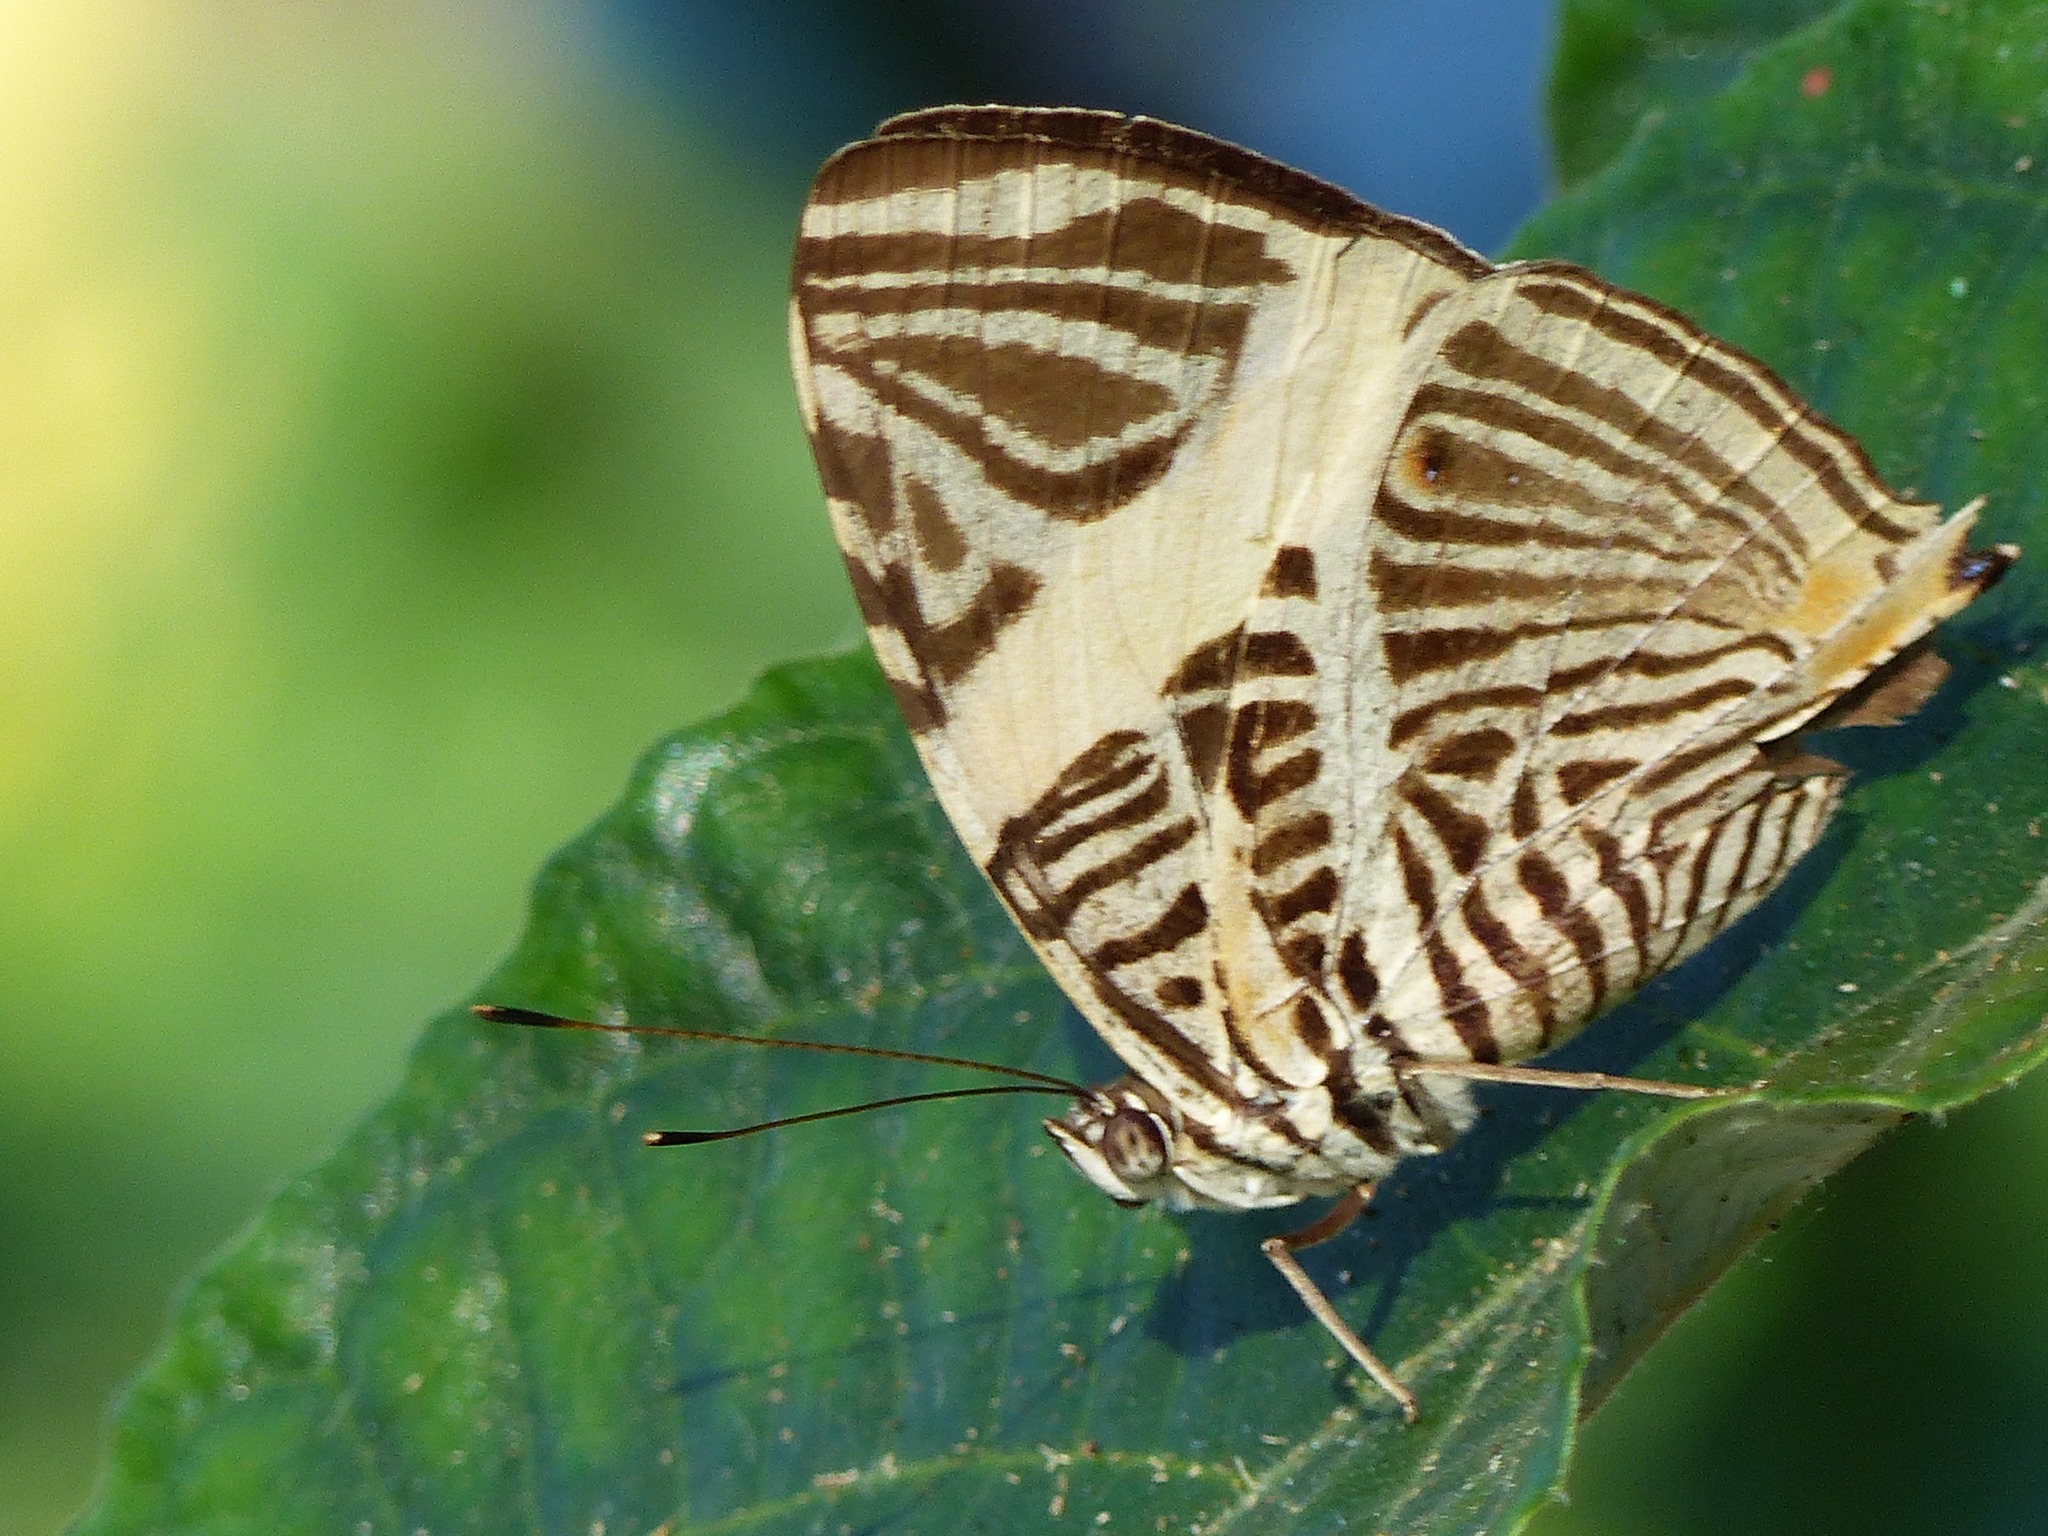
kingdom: Animalia
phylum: Arthropoda
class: Insecta
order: Lepidoptera
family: Nymphalidae
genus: Colobura
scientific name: Colobura dirce
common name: Dirce beauty
